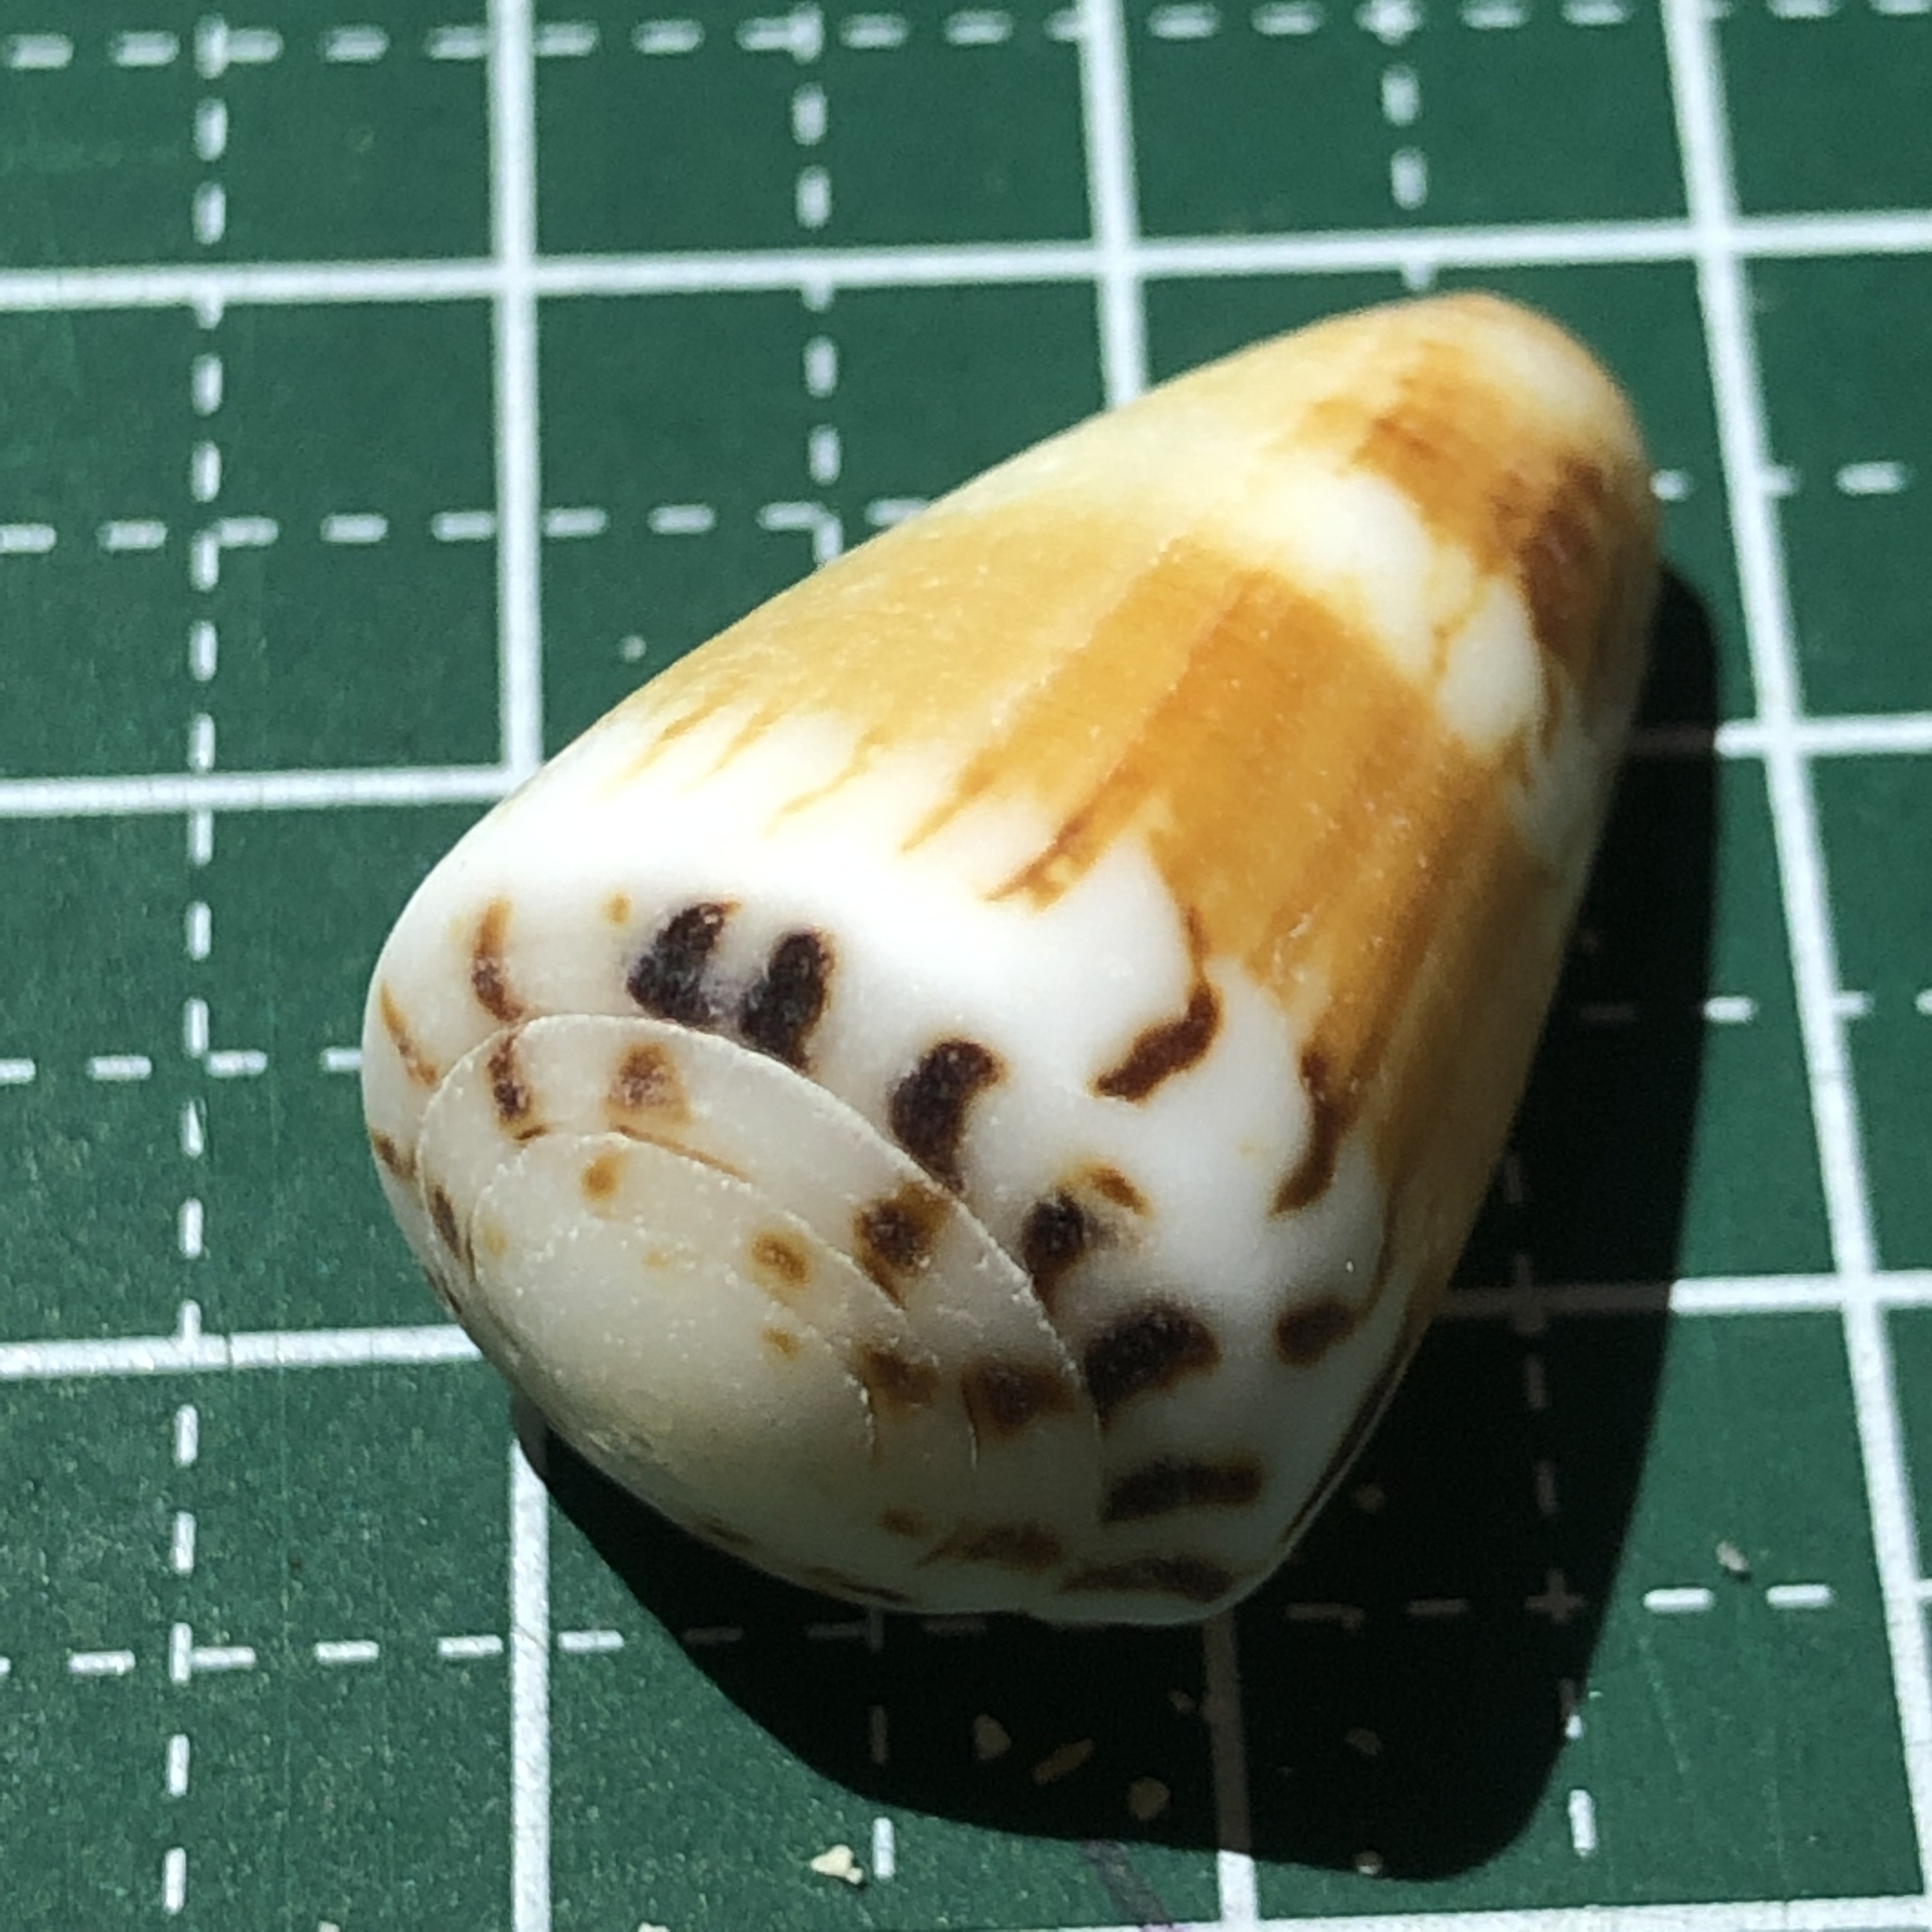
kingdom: Animalia
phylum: Mollusca
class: Gastropoda
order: Neogastropoda
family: Conidae
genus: Conus
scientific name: Conus planorbis
